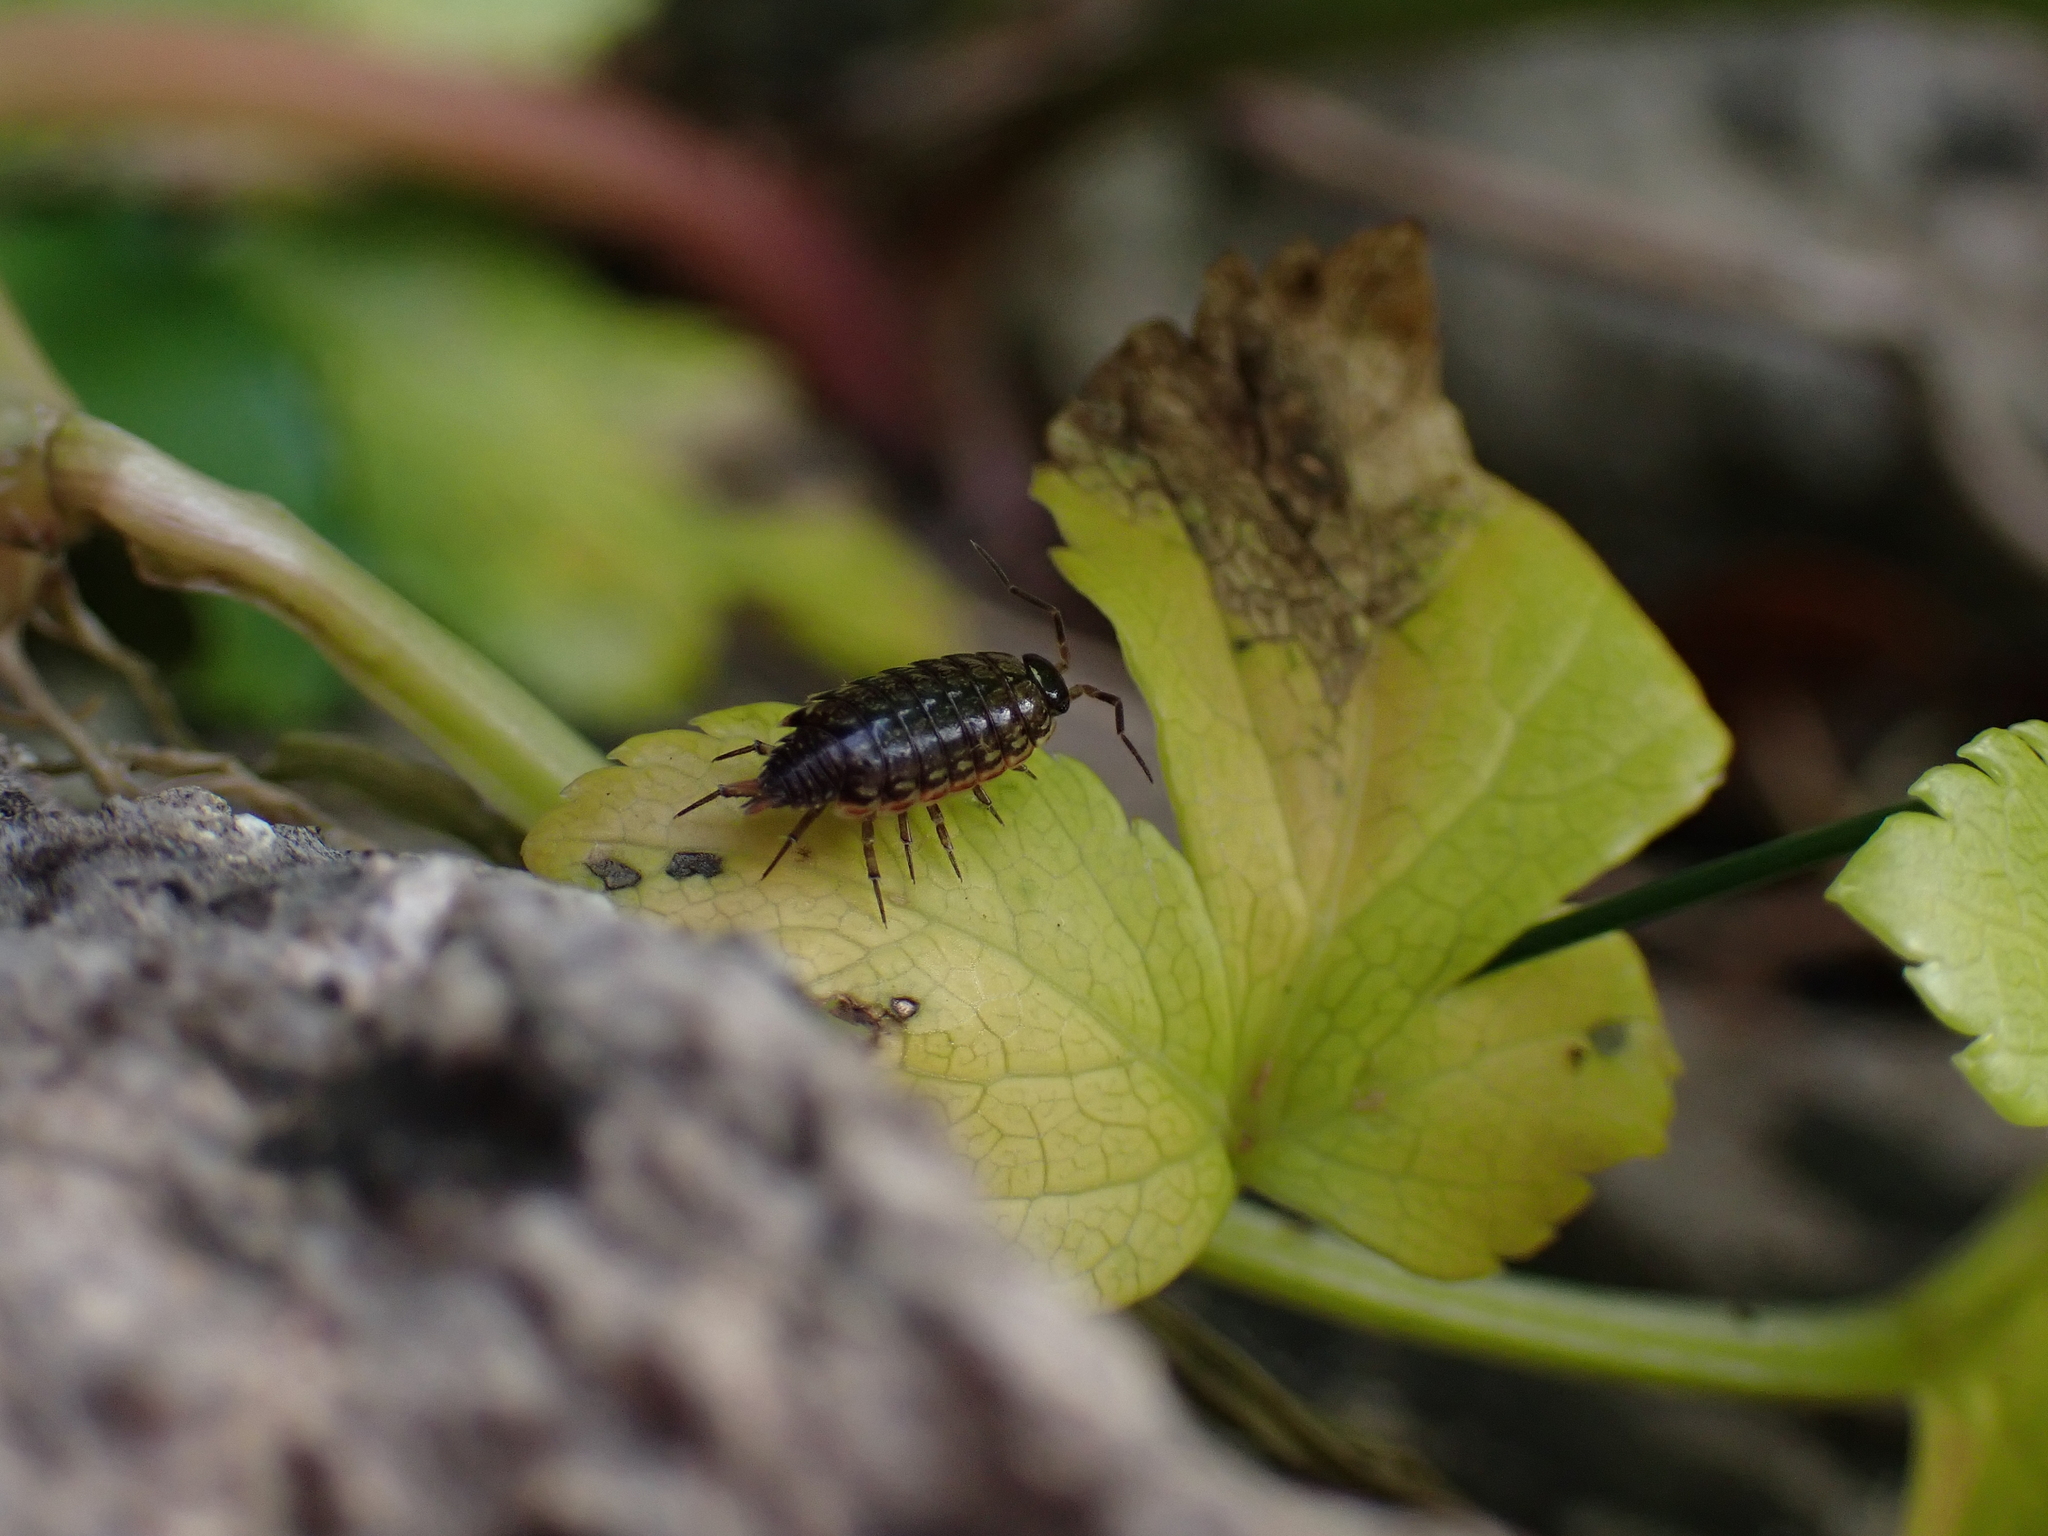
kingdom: Animalia
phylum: Arthropoda
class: Malacostraca
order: Isopoda
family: Philosciidae
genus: Philoscia
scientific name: Philoscia muscorum
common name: Common striped woodlouse
